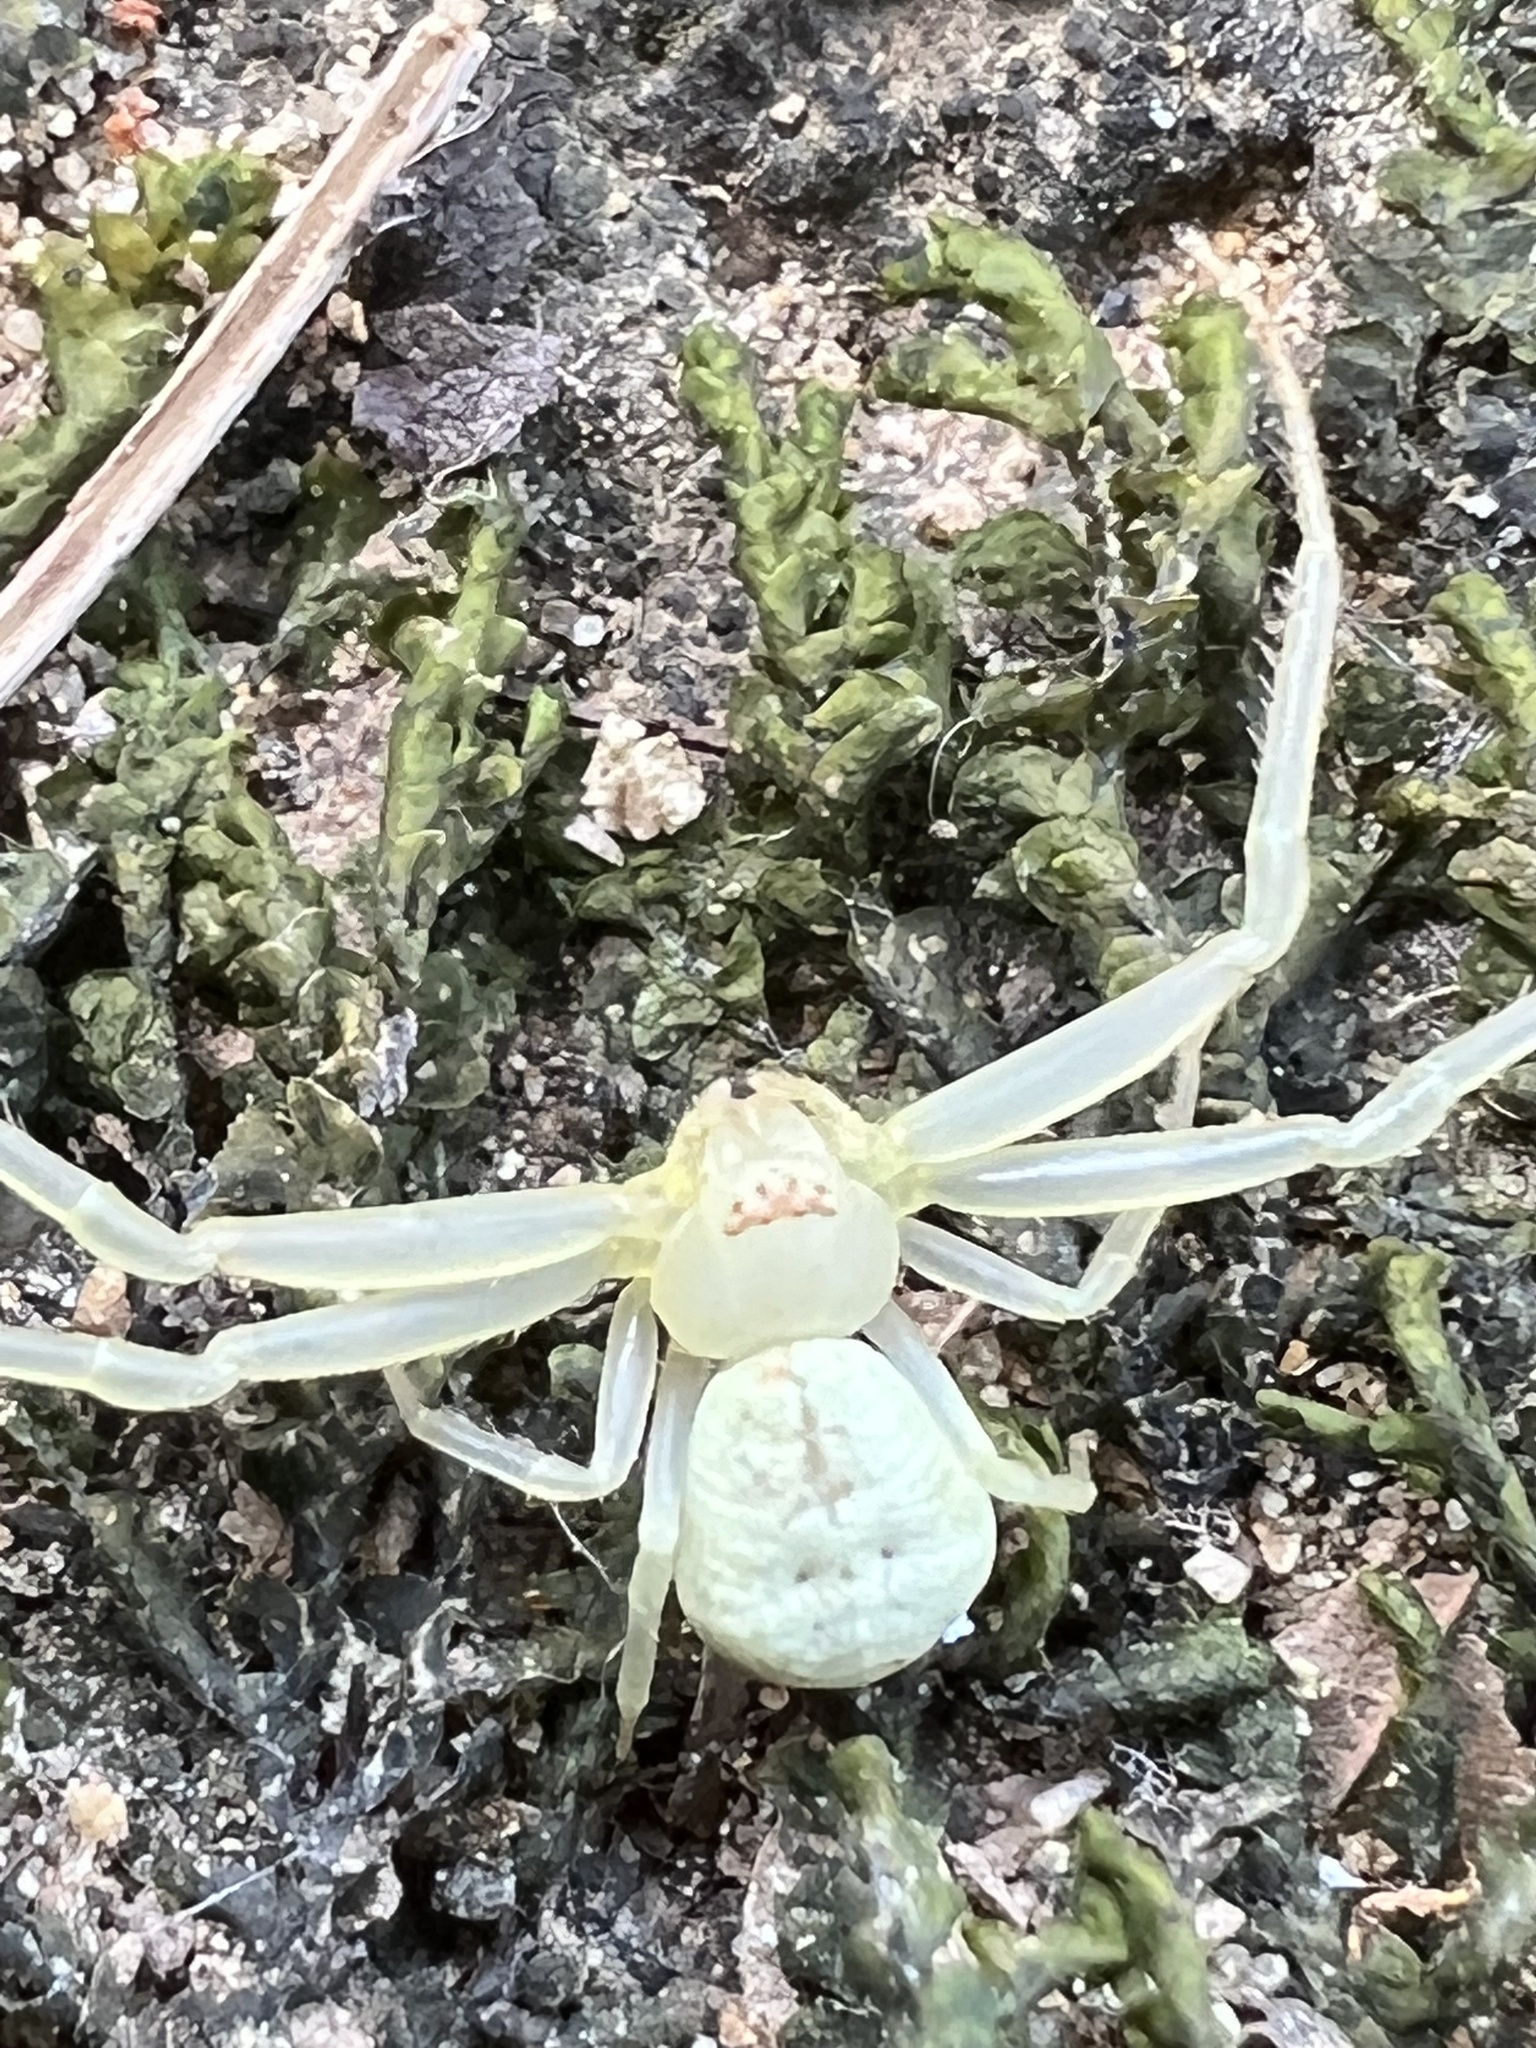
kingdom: Animalia
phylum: Arthropoda
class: Arachnida
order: Araneae
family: Thomisidae
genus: Misumessus
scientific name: Misumessus oblongus
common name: American green crab spider
